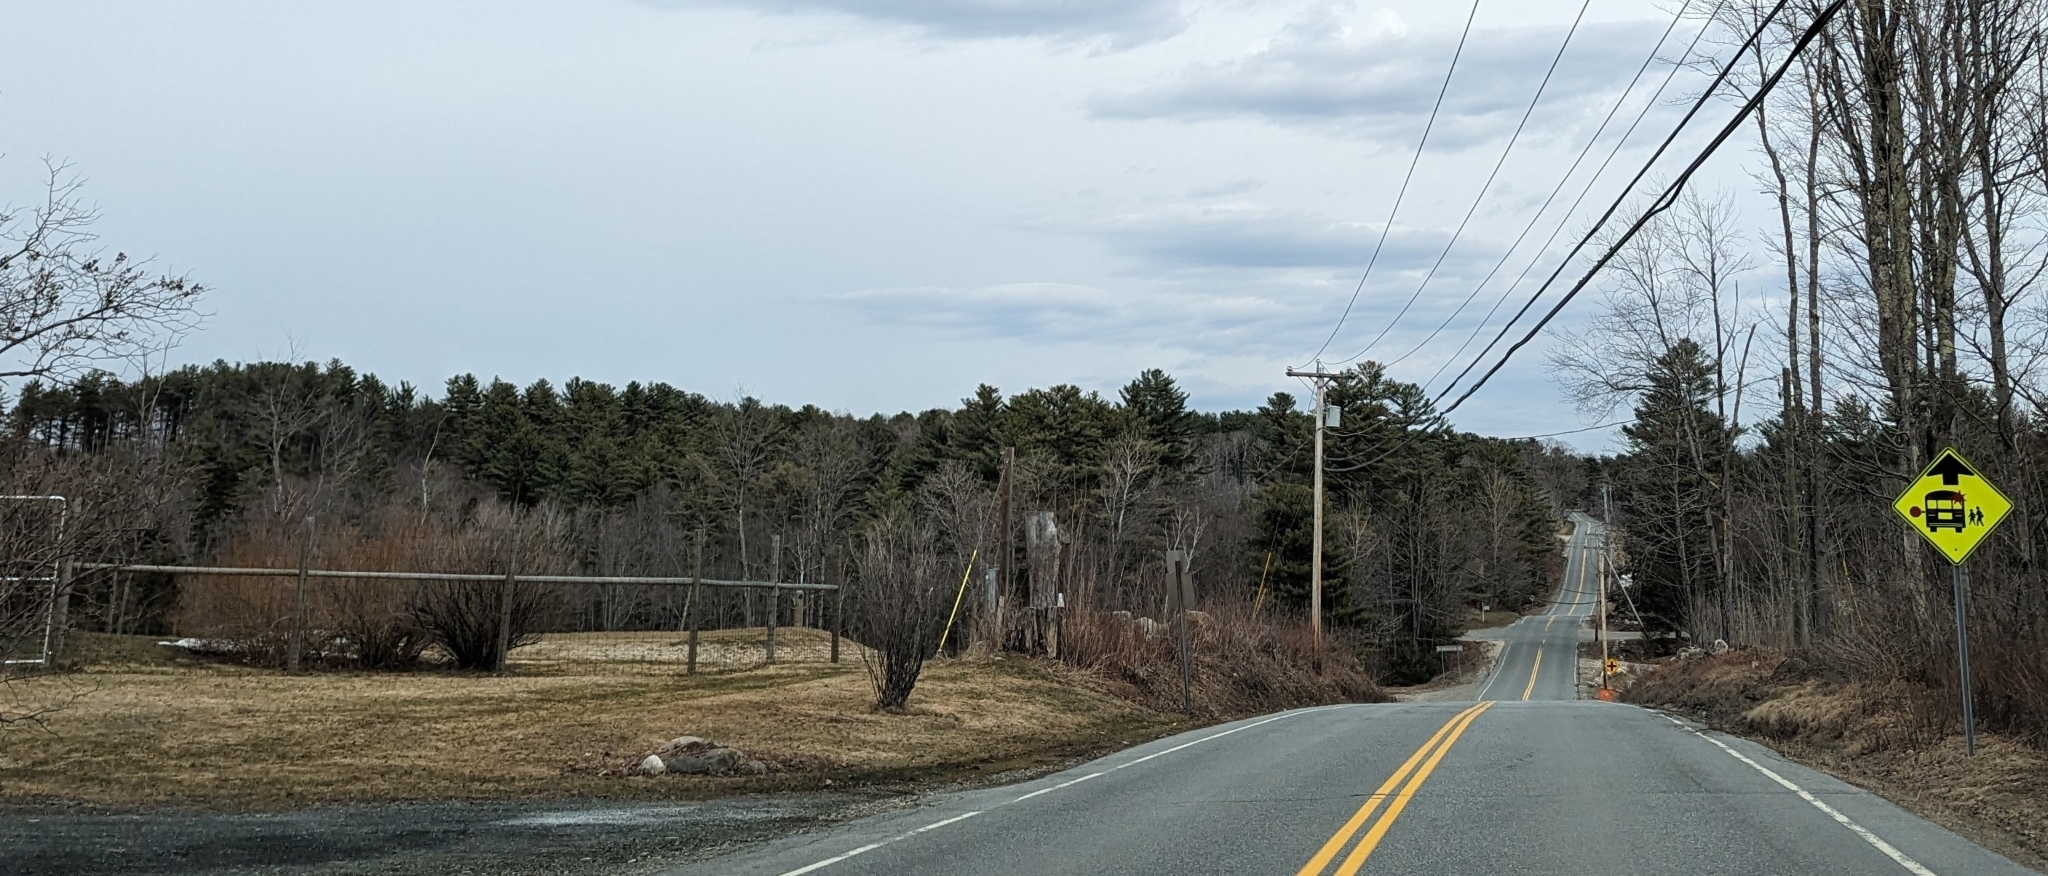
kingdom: Plantae
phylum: Tracheophyta
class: Pinopsida
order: Pinales
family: Pinaceae
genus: Pinus
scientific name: Pinus strobus
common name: Weymouth pine
